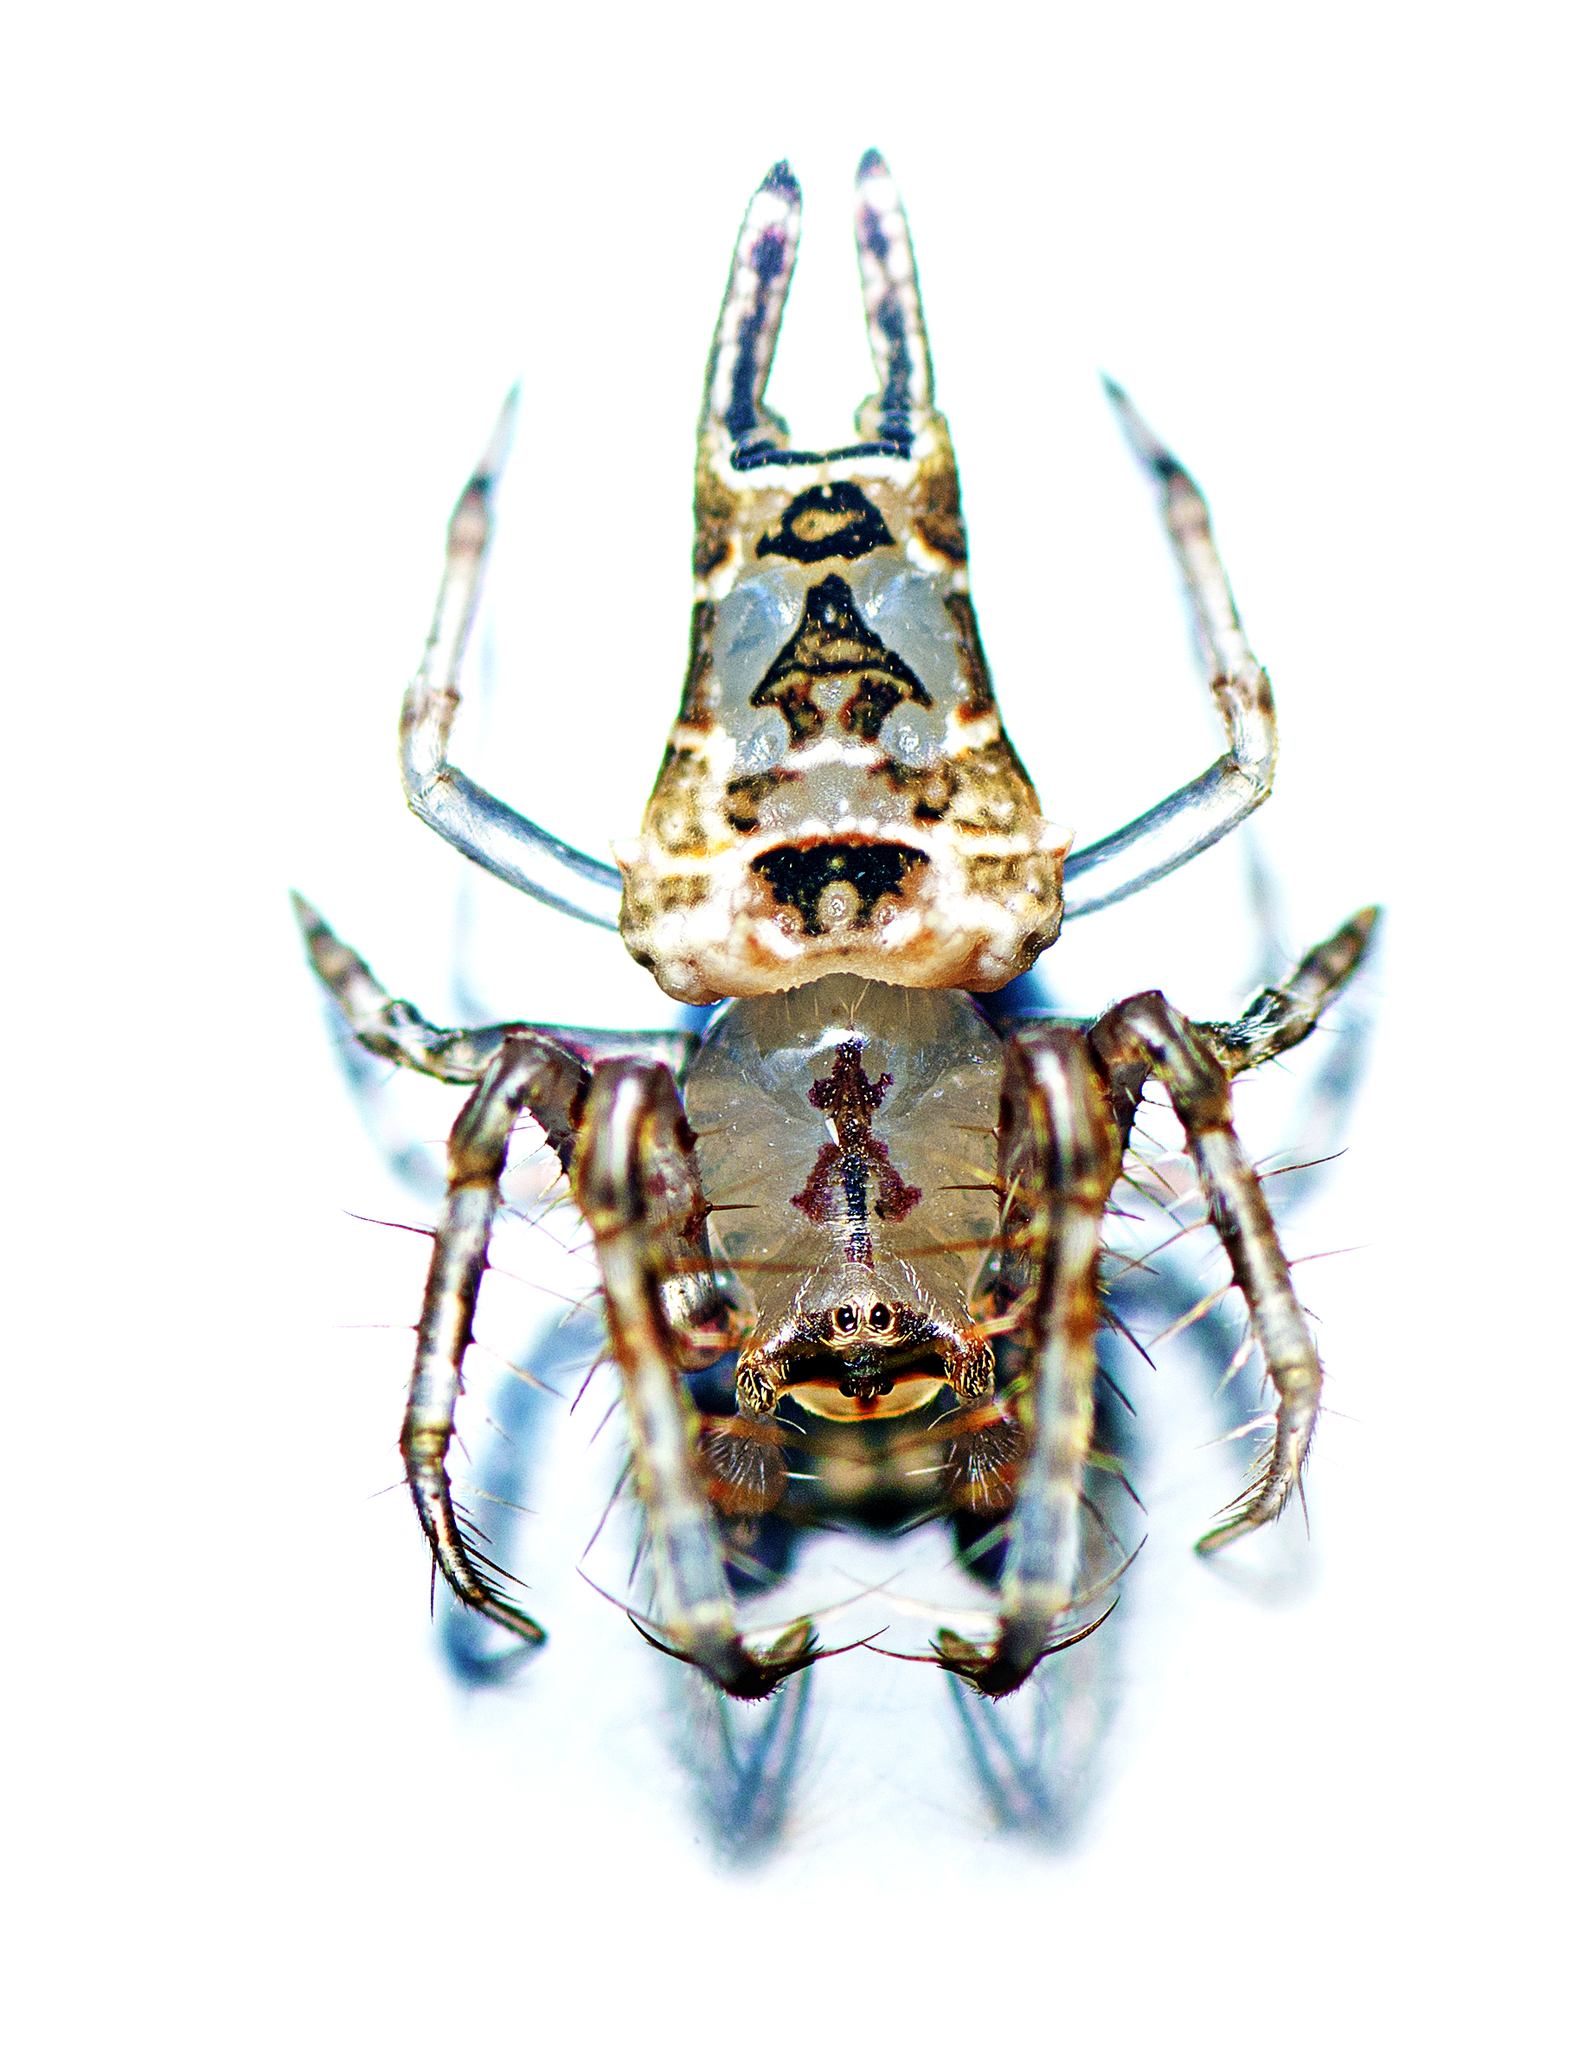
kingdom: Animalia
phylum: Arthropoda
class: Arachnida
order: Araneae
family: Arkyidae
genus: Arkys
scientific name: Arkys furcatus
